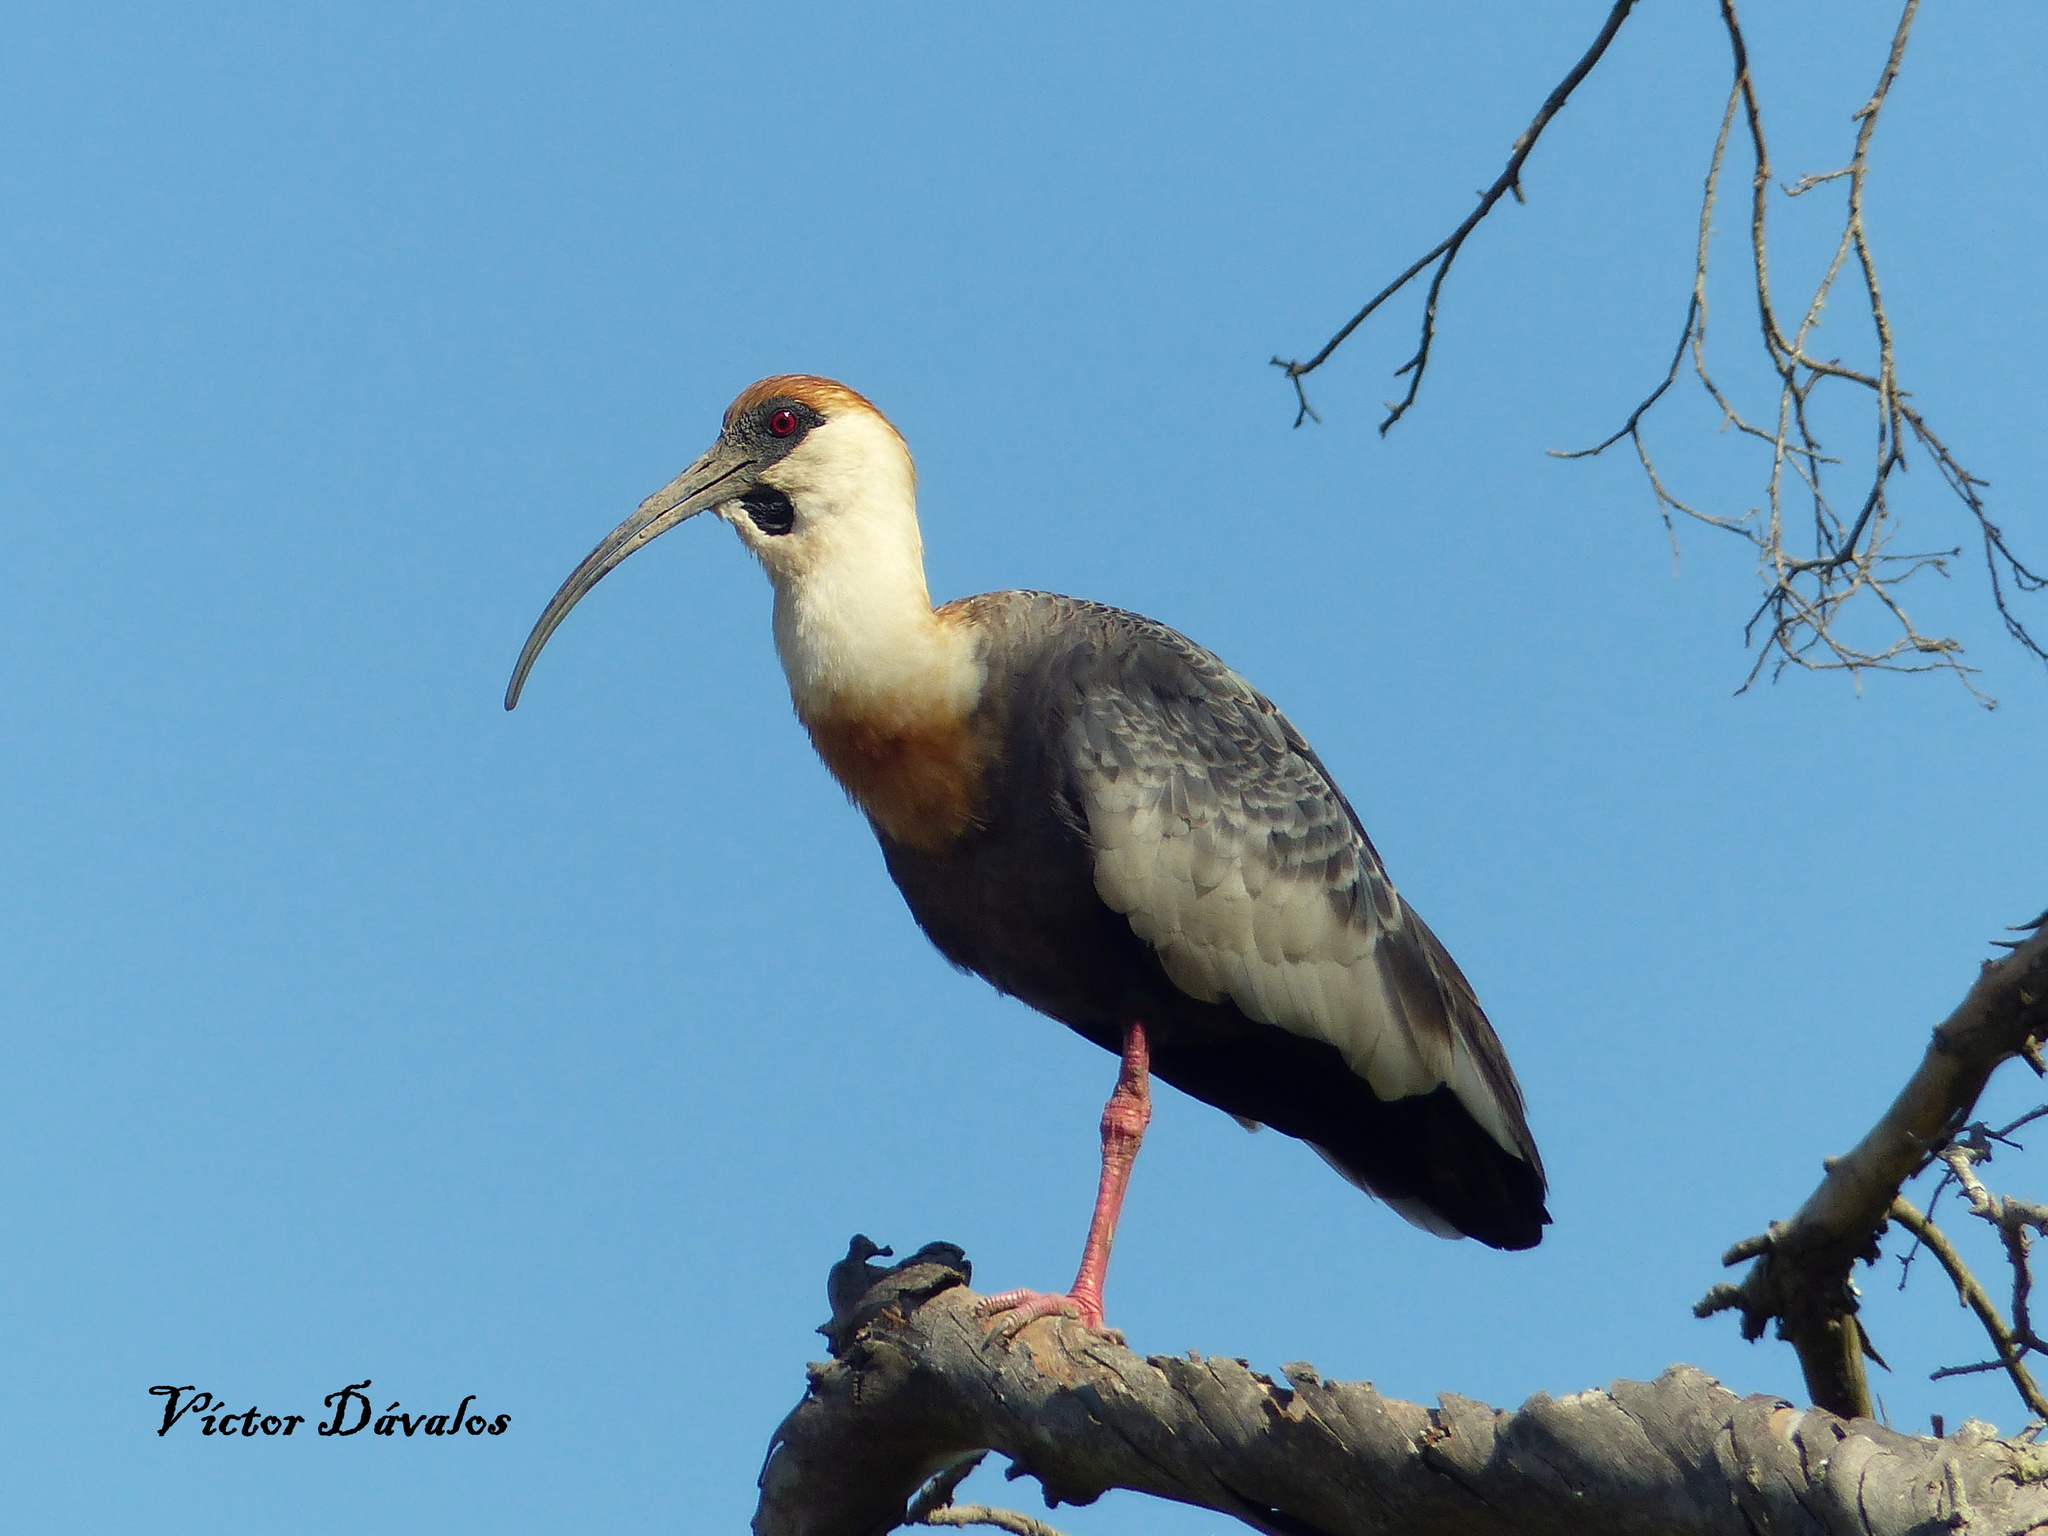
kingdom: Animalia
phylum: Chordata
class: Aves
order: Pelecaniformes
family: Threskiornithidae
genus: Theristicus
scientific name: Theristicus caudatus
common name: Buff-necked ibis
